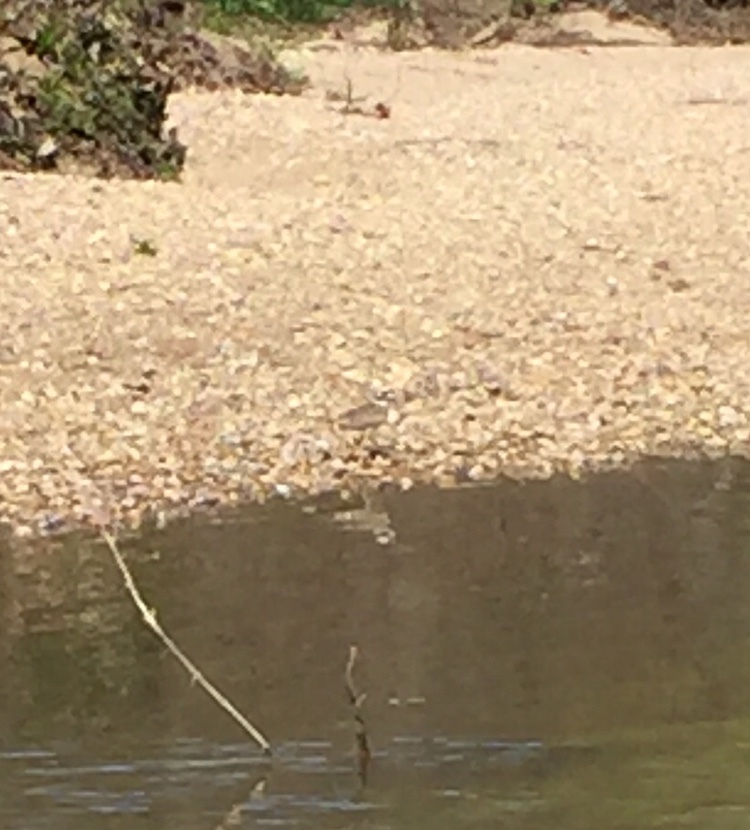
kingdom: Animalia
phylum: Chordata
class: Aves
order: Charadriiformes
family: Charadriidae
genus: Charadrius
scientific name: Charadrius vociferus
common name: Killdeer
